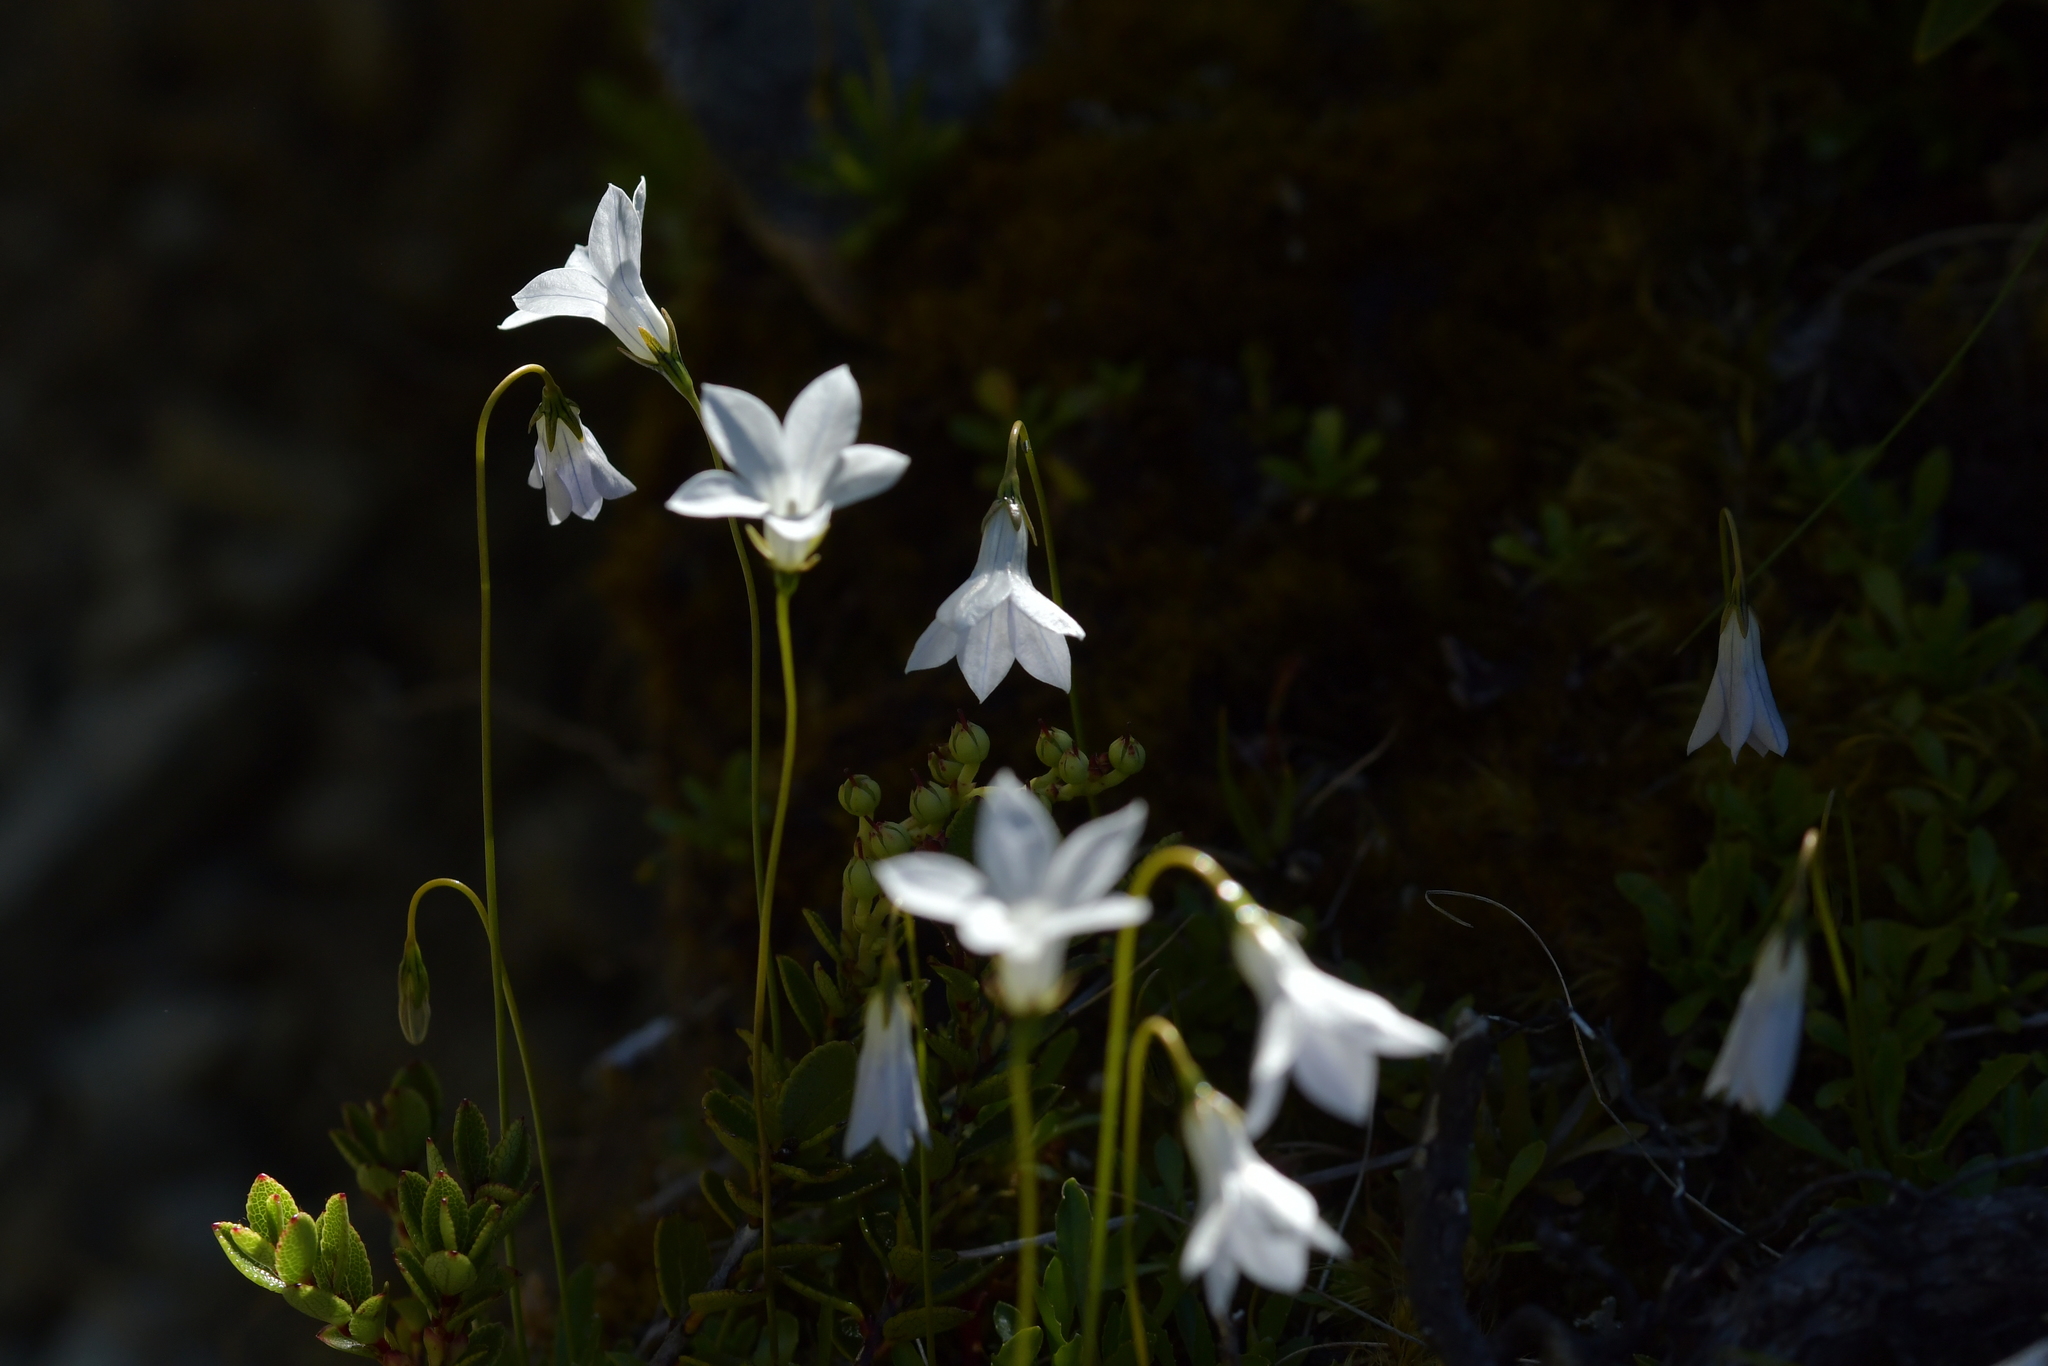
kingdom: Plantae
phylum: Tracheophyta
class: Magnoliopsida
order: Asterales
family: Campanulaceae
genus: Wahlenbergia
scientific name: Wahlenbergia albomarginata
